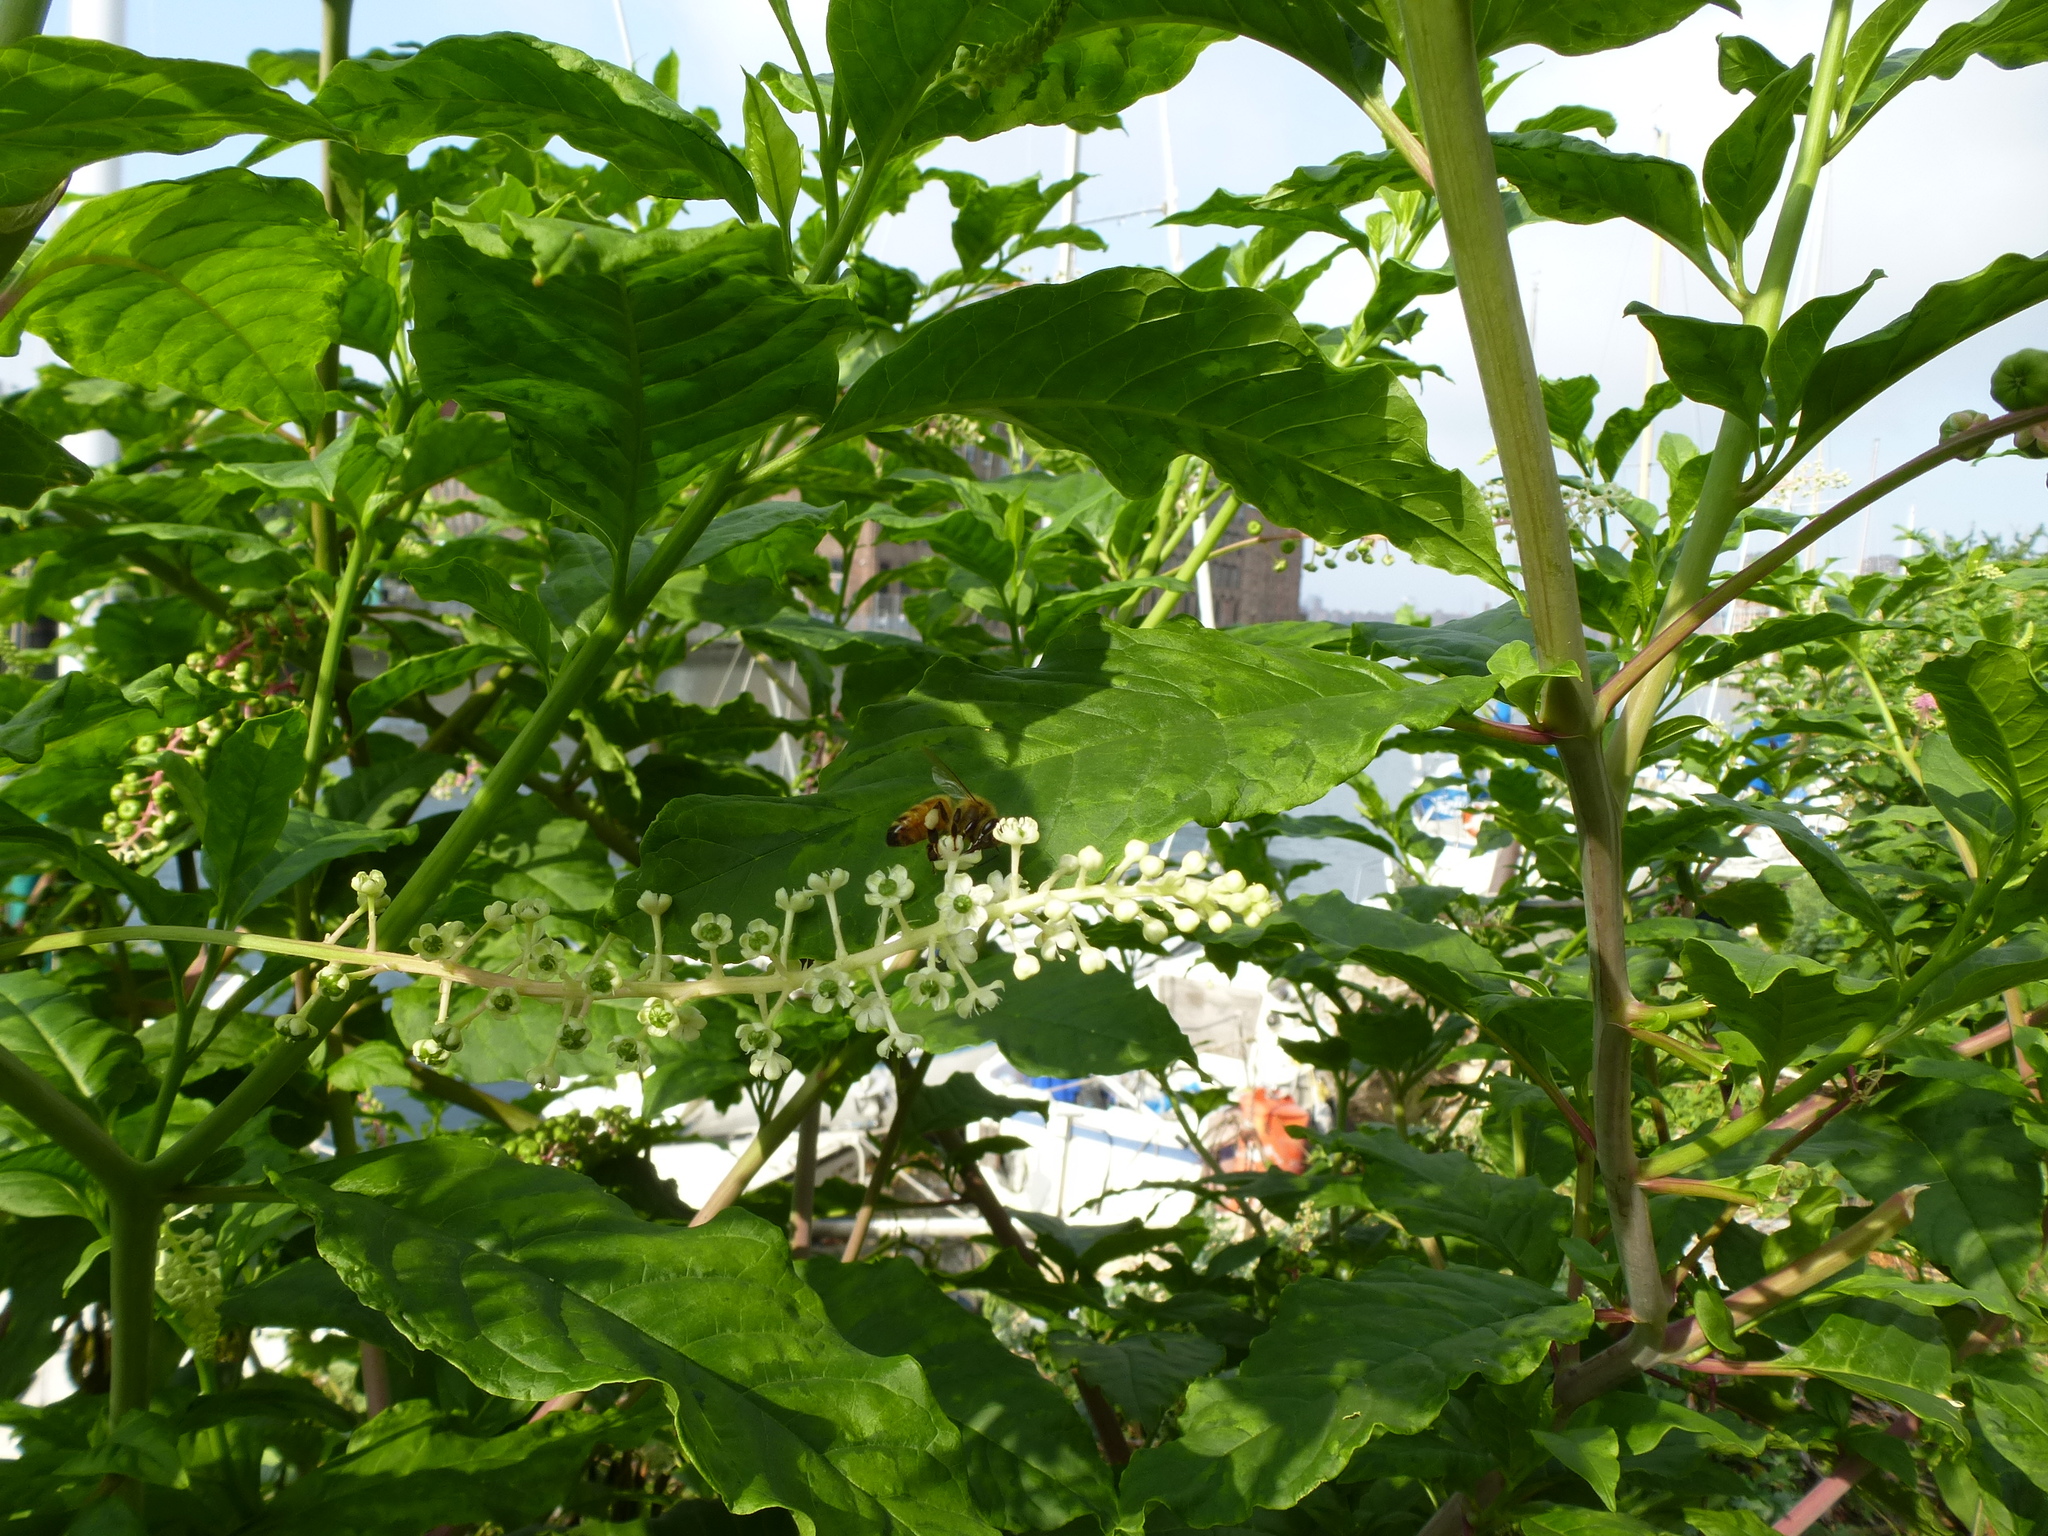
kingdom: Animalia
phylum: Arthropoda
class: Insecta
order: Hymenoptera
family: Apidae
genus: Apis
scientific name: Apis mellifera
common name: Honey bee
